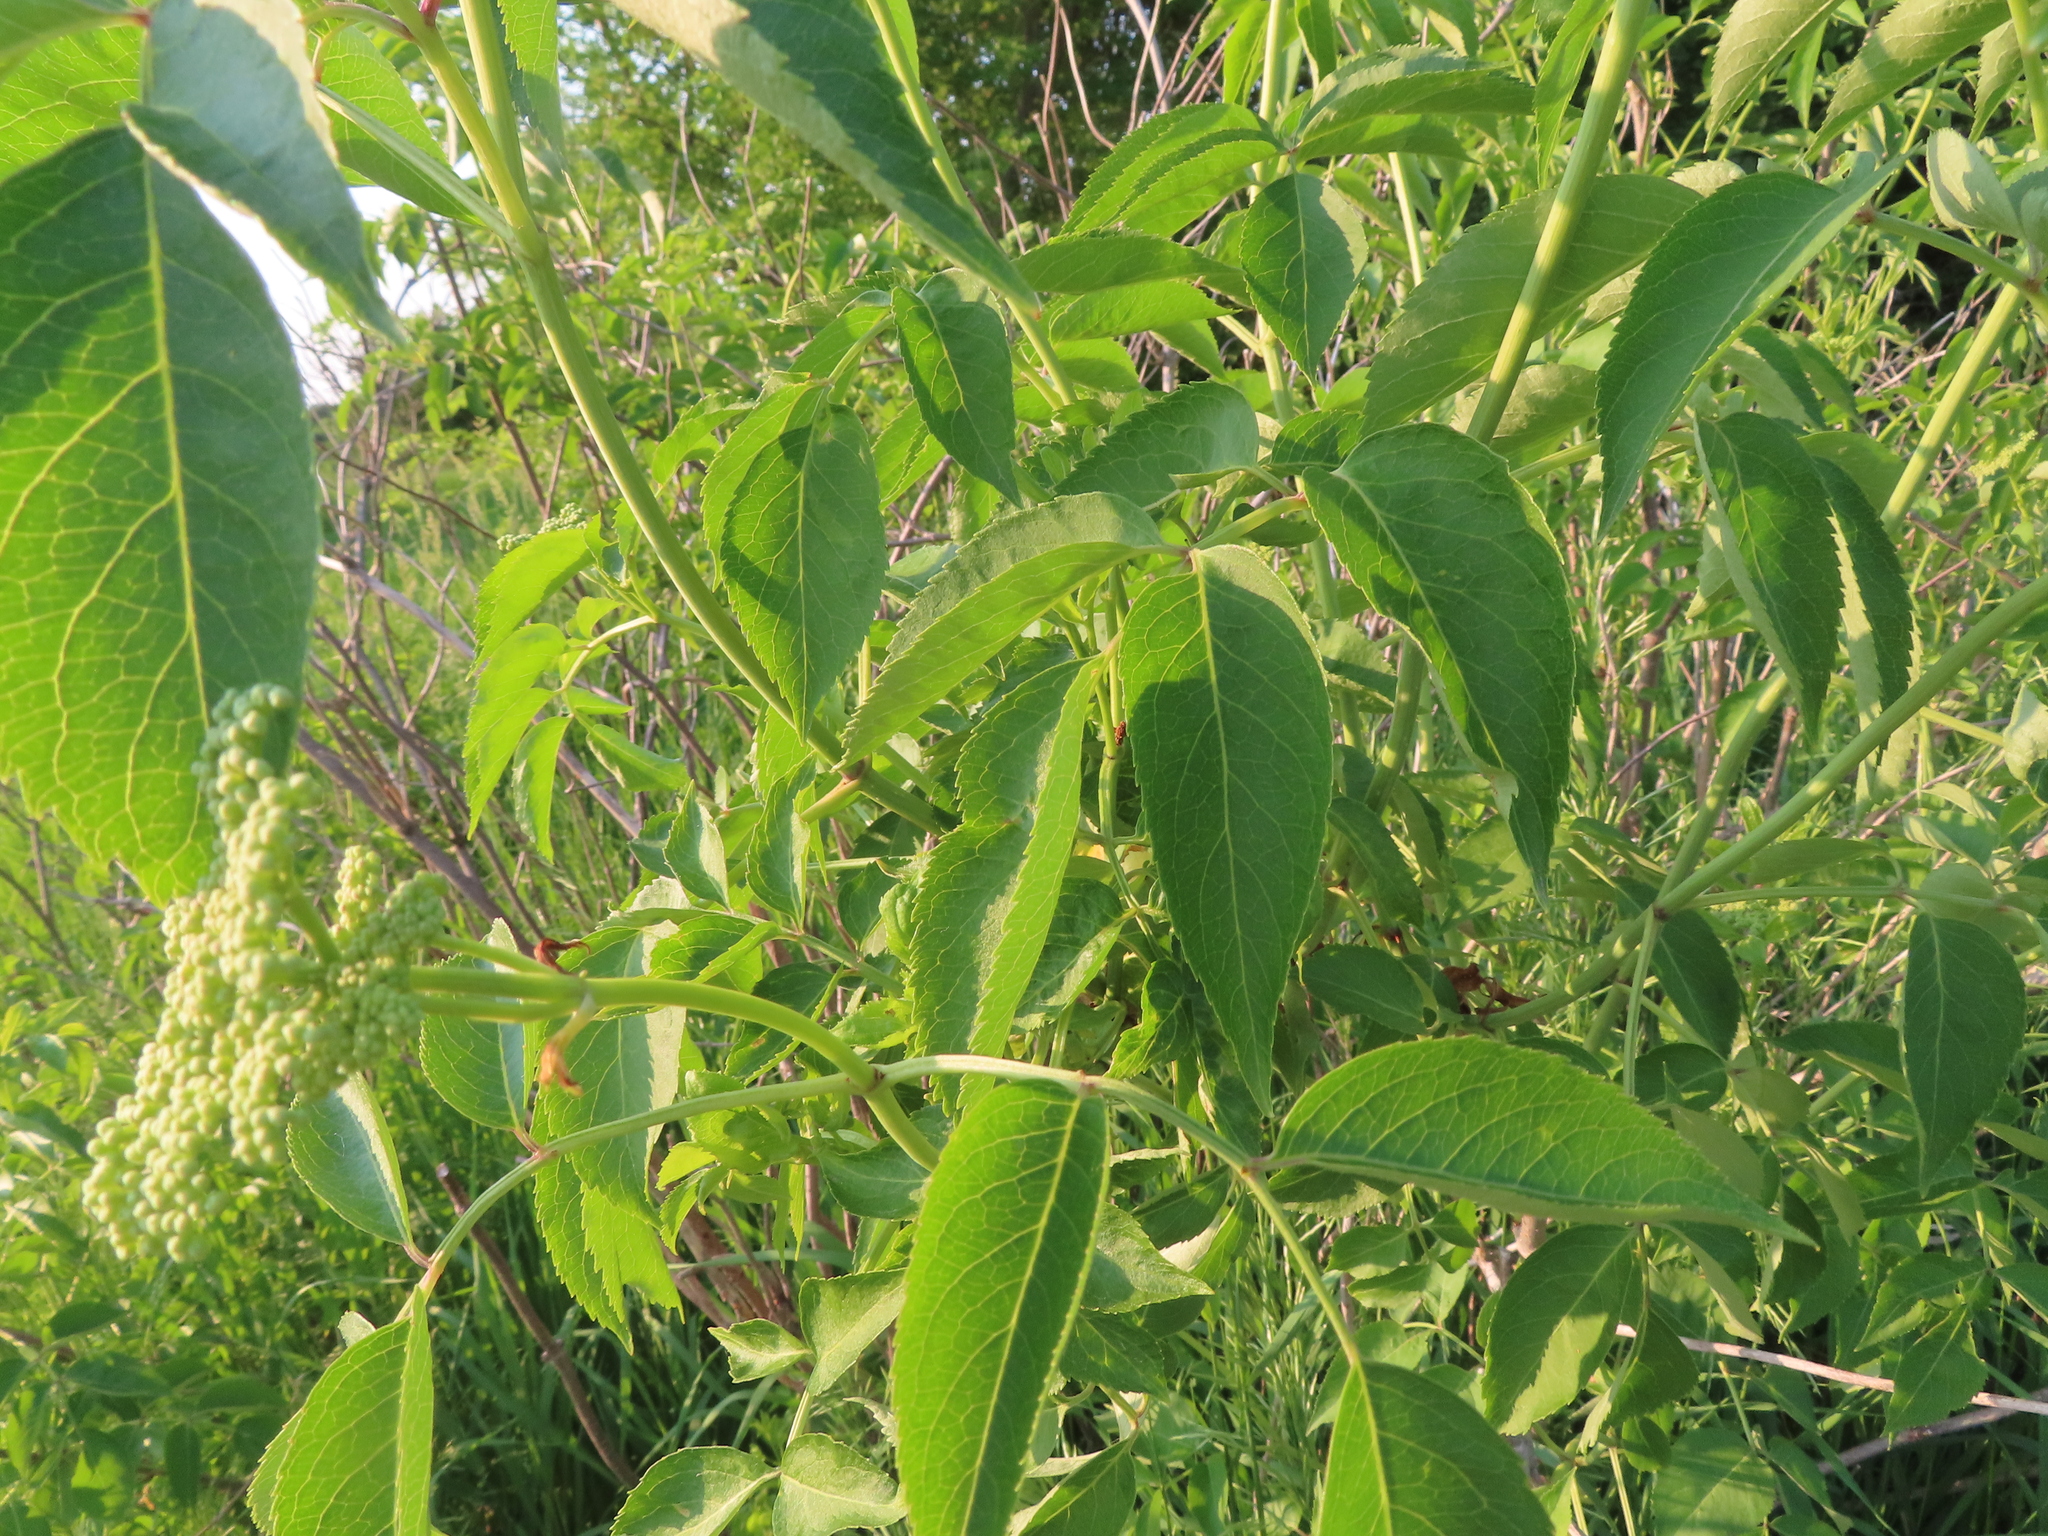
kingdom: Plantae
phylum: Tracheophyta
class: Magnoliopsida
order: Dipsacales
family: Viburnaceae
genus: Sambucus
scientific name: Sambucus canadensis
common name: American elder
